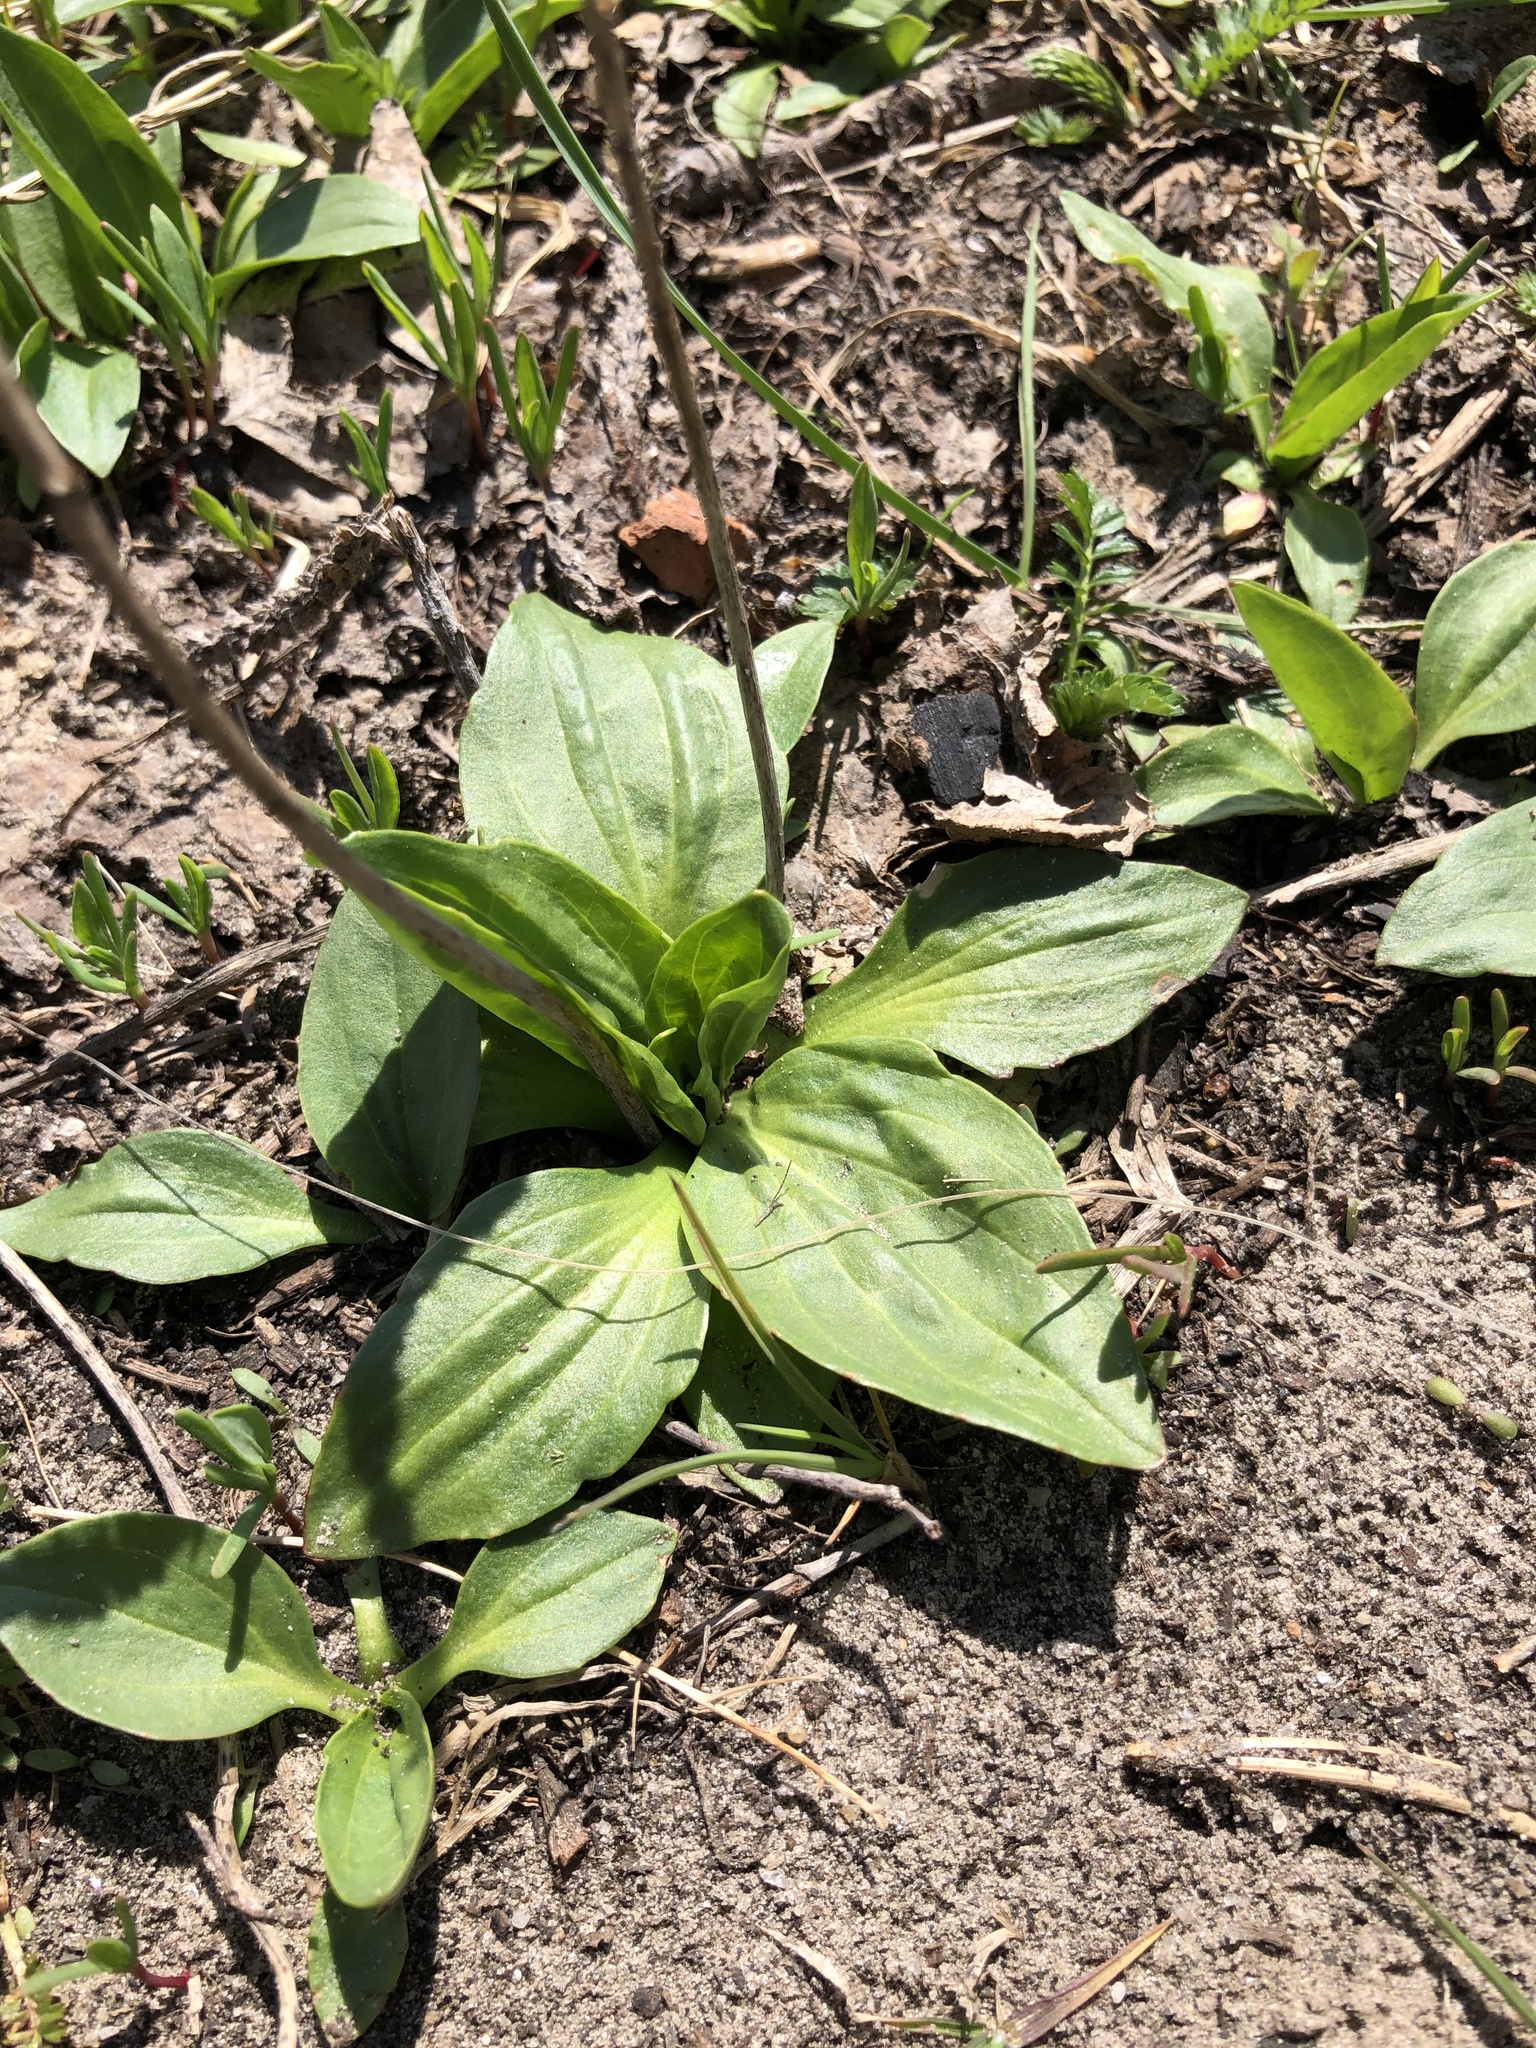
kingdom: Plantae
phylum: Tracheophyta
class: Magnoliopsida
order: Lamiales
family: Plantaginaceae
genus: Plantago
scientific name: Plantago major
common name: Common plantain
